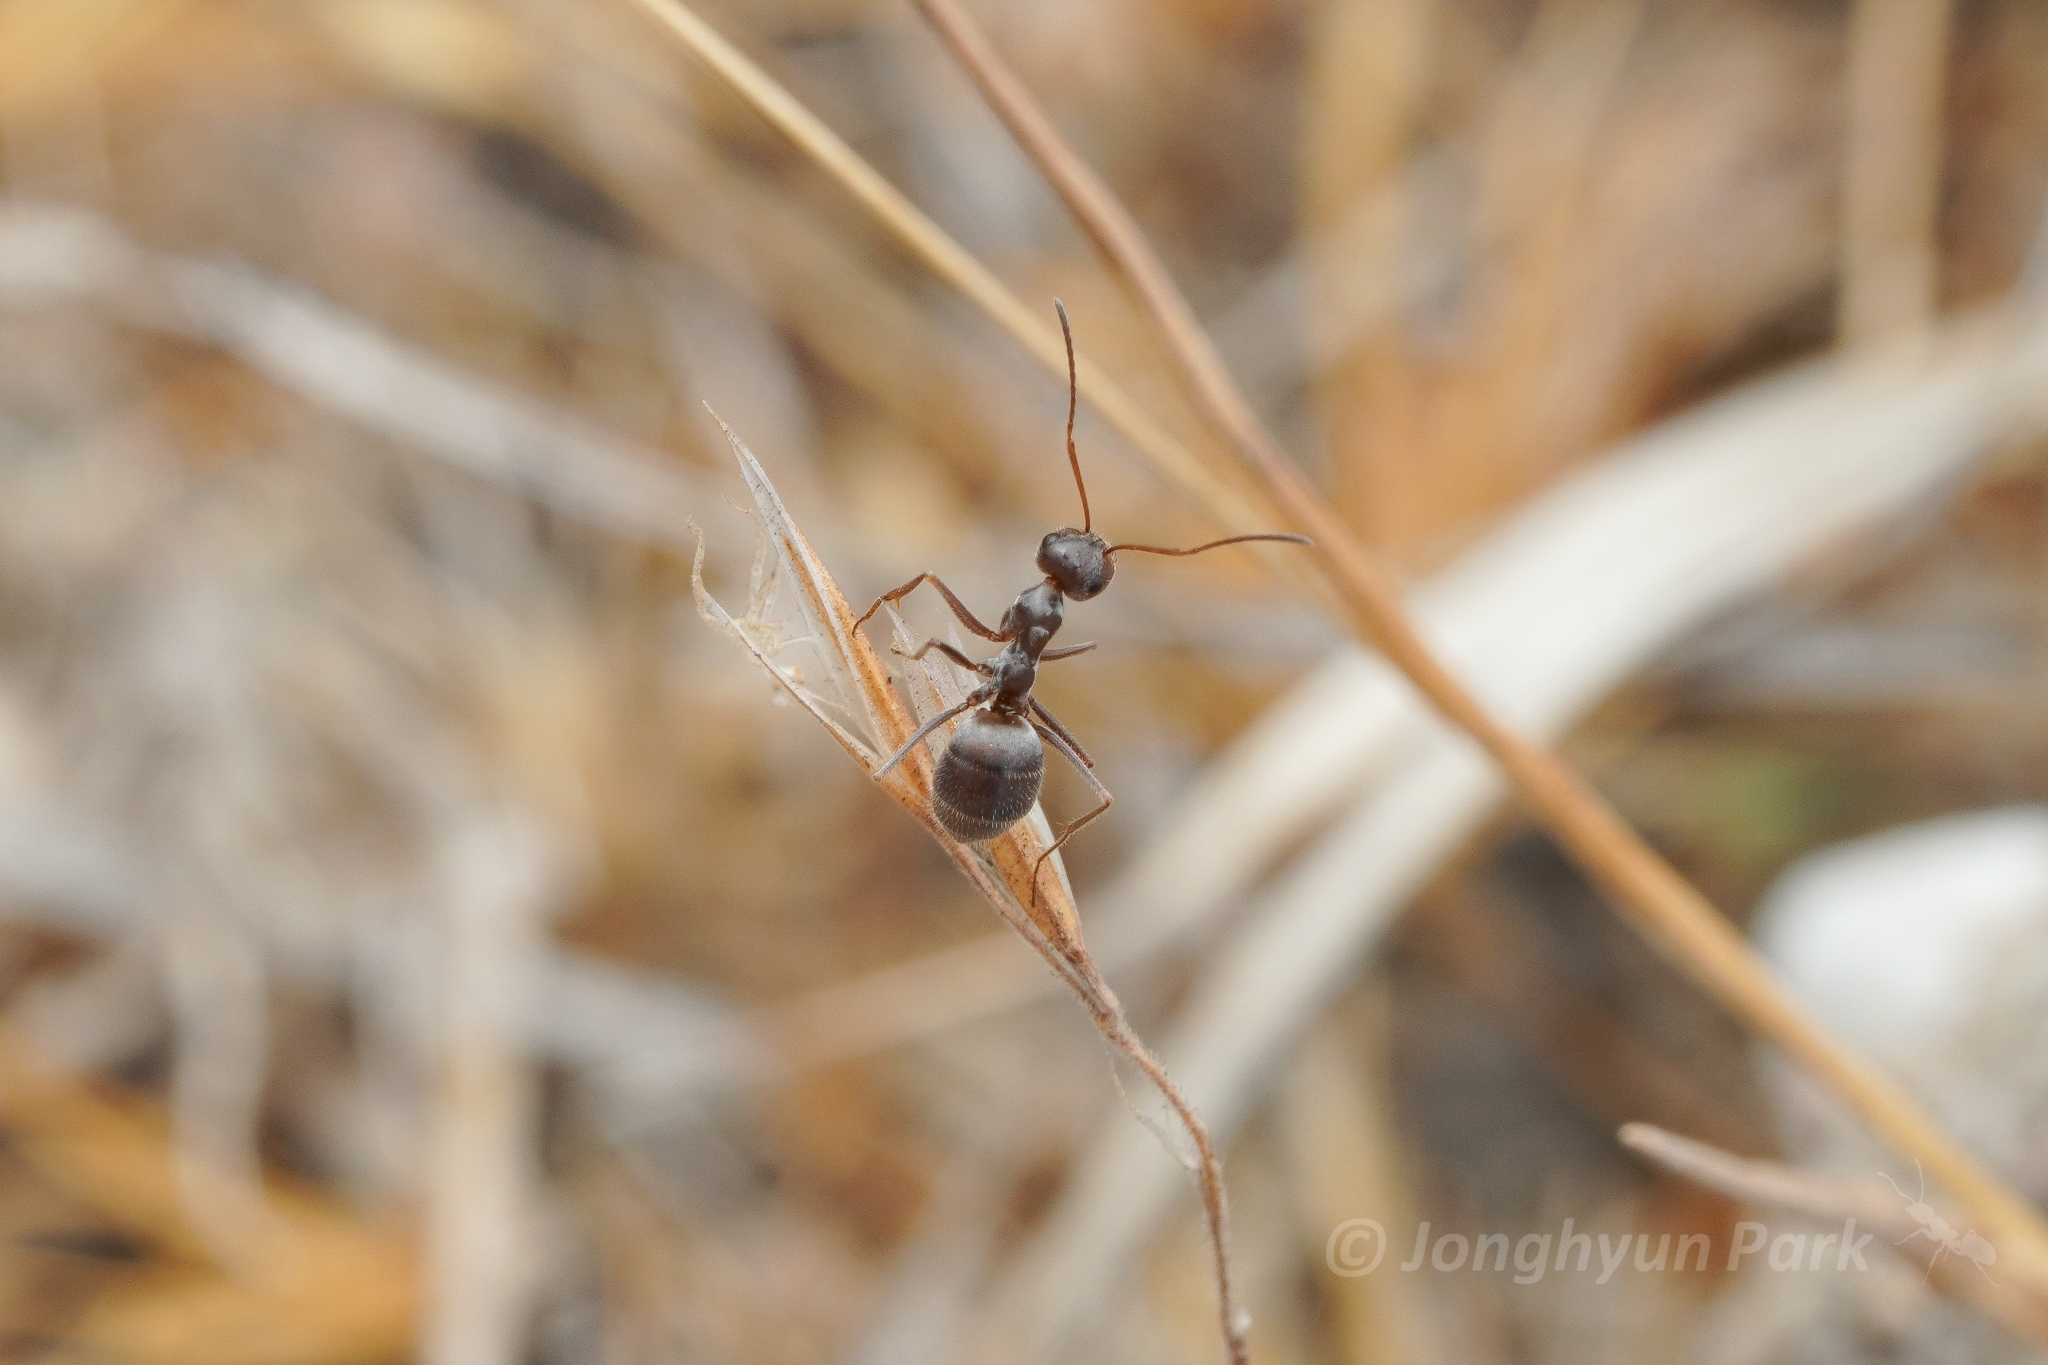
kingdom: Animalia
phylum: Arthropoda
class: Insecta
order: Hymenoptera
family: Formicidae
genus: Myrmecocystus
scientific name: Myrmecocystus colei
